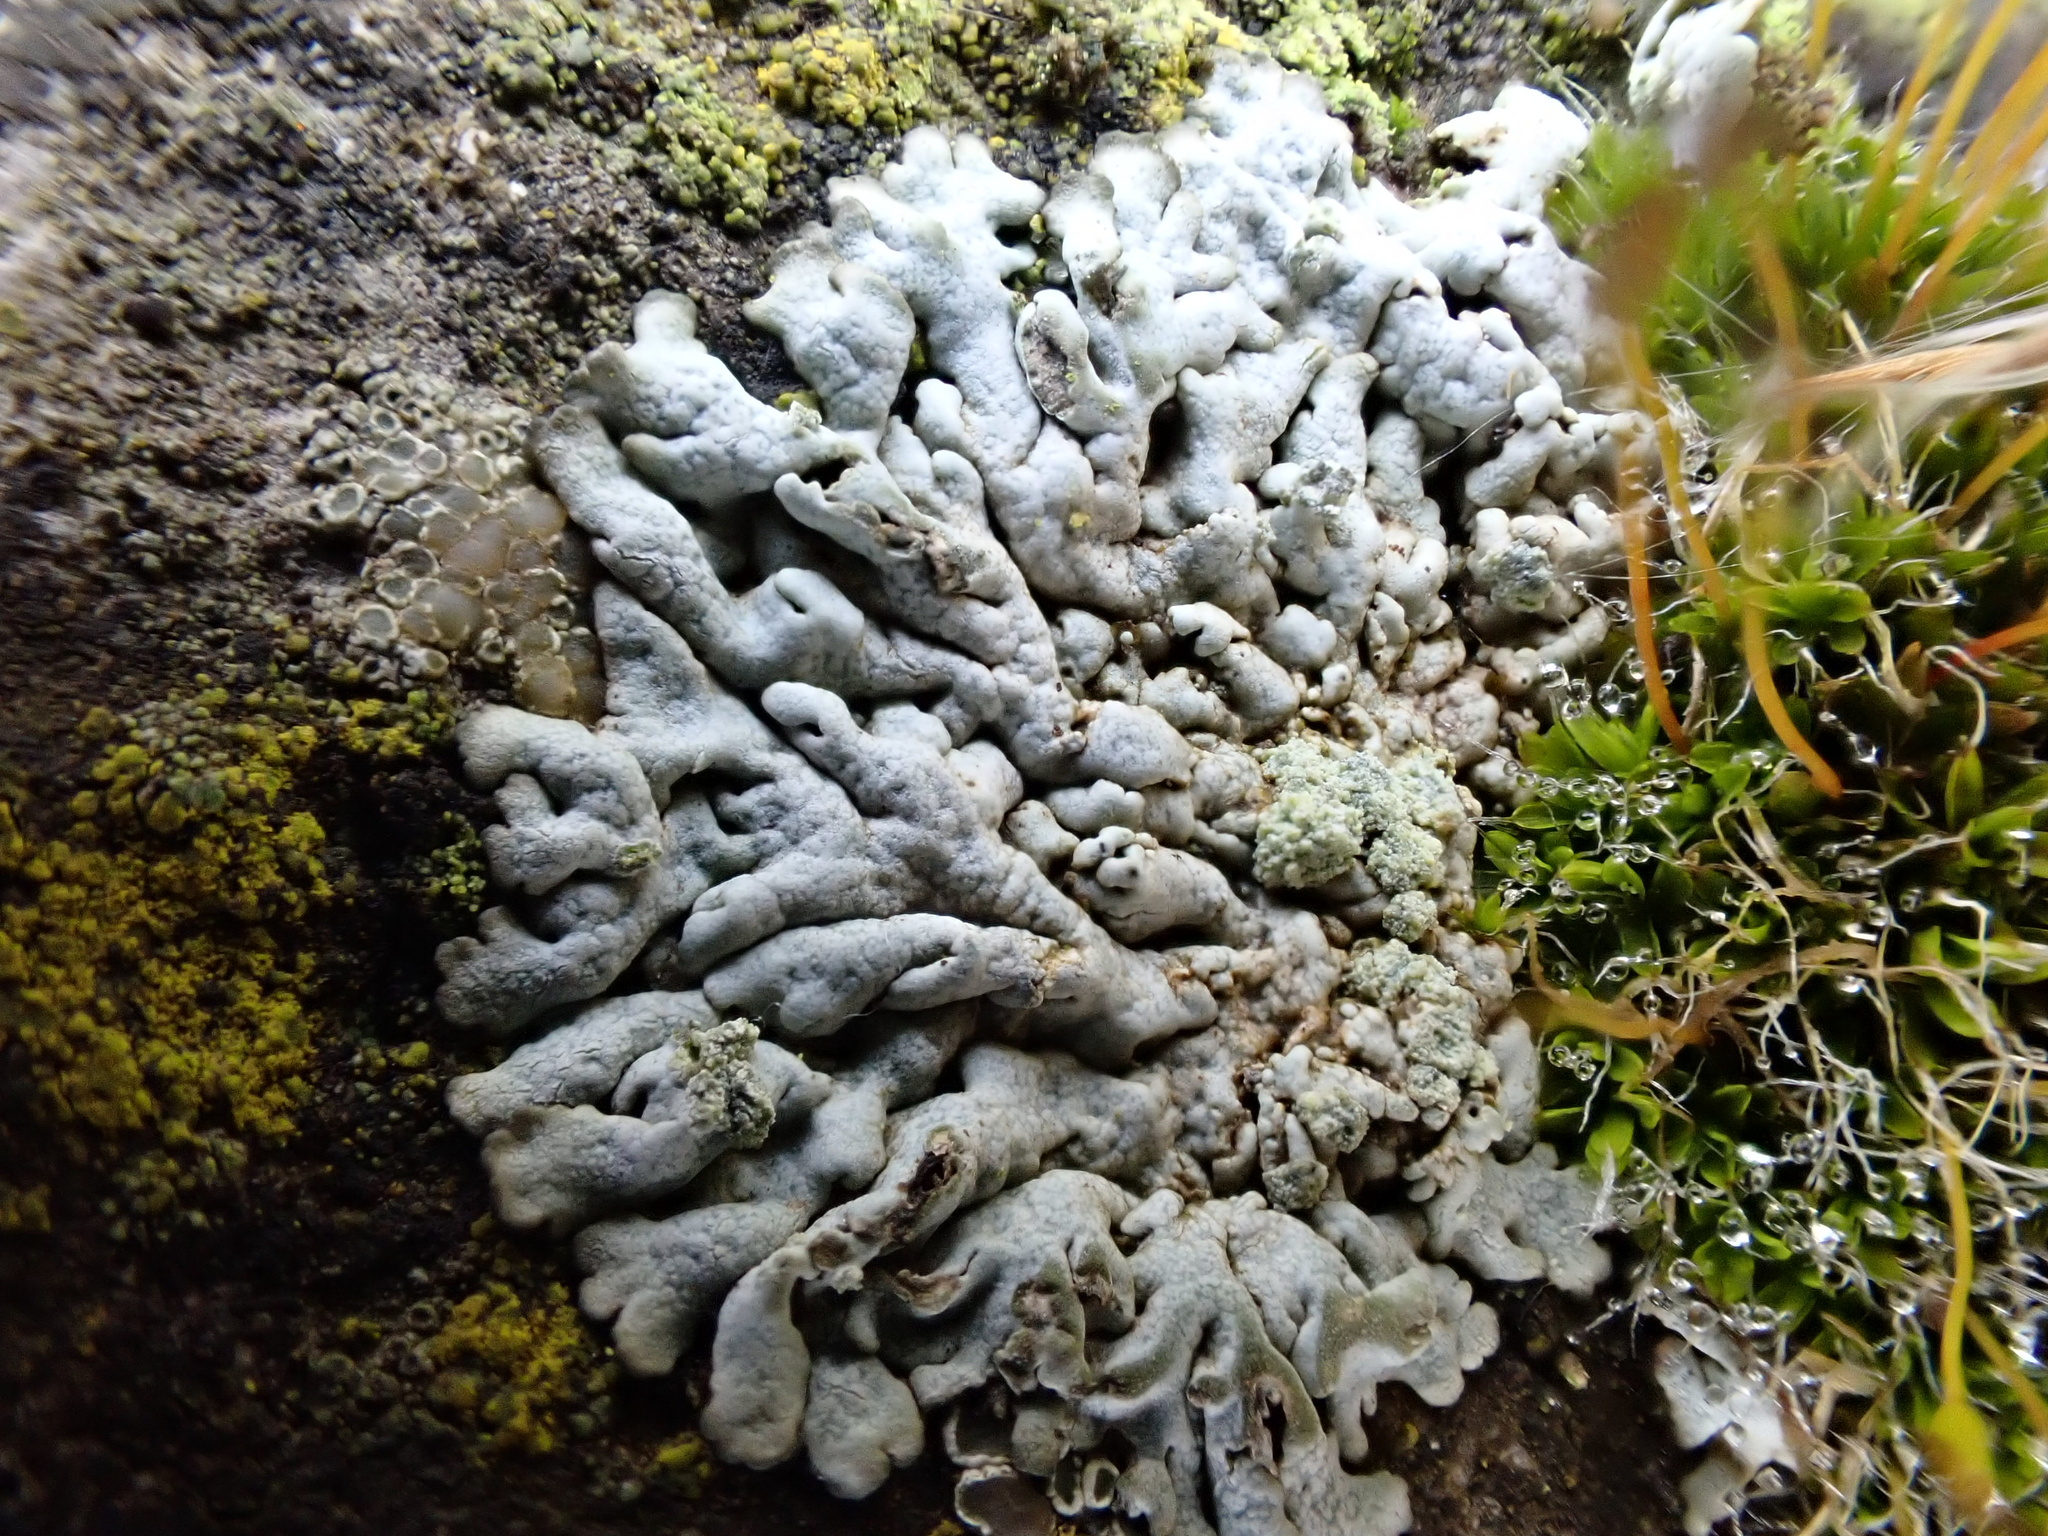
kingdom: Fungi
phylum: Ascomycota
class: Lecanoromycetes
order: Caliciales
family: Physciaceae
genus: Physcia
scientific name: Physcia caesia
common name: Blue-gray rosette lichen
